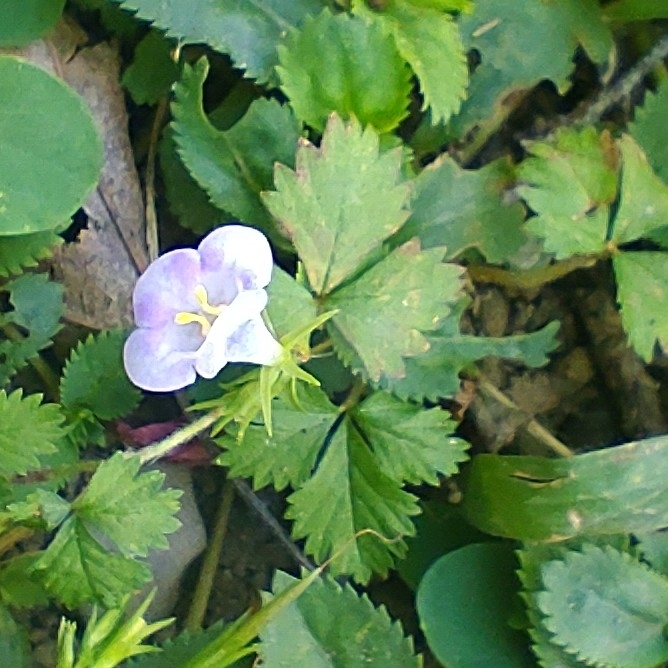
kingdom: Plantae
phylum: Tracheophyta
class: Magnoliopsida
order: Lamiales
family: Linderniaceae
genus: Bonnaya
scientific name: Bonnaya ruelloides
